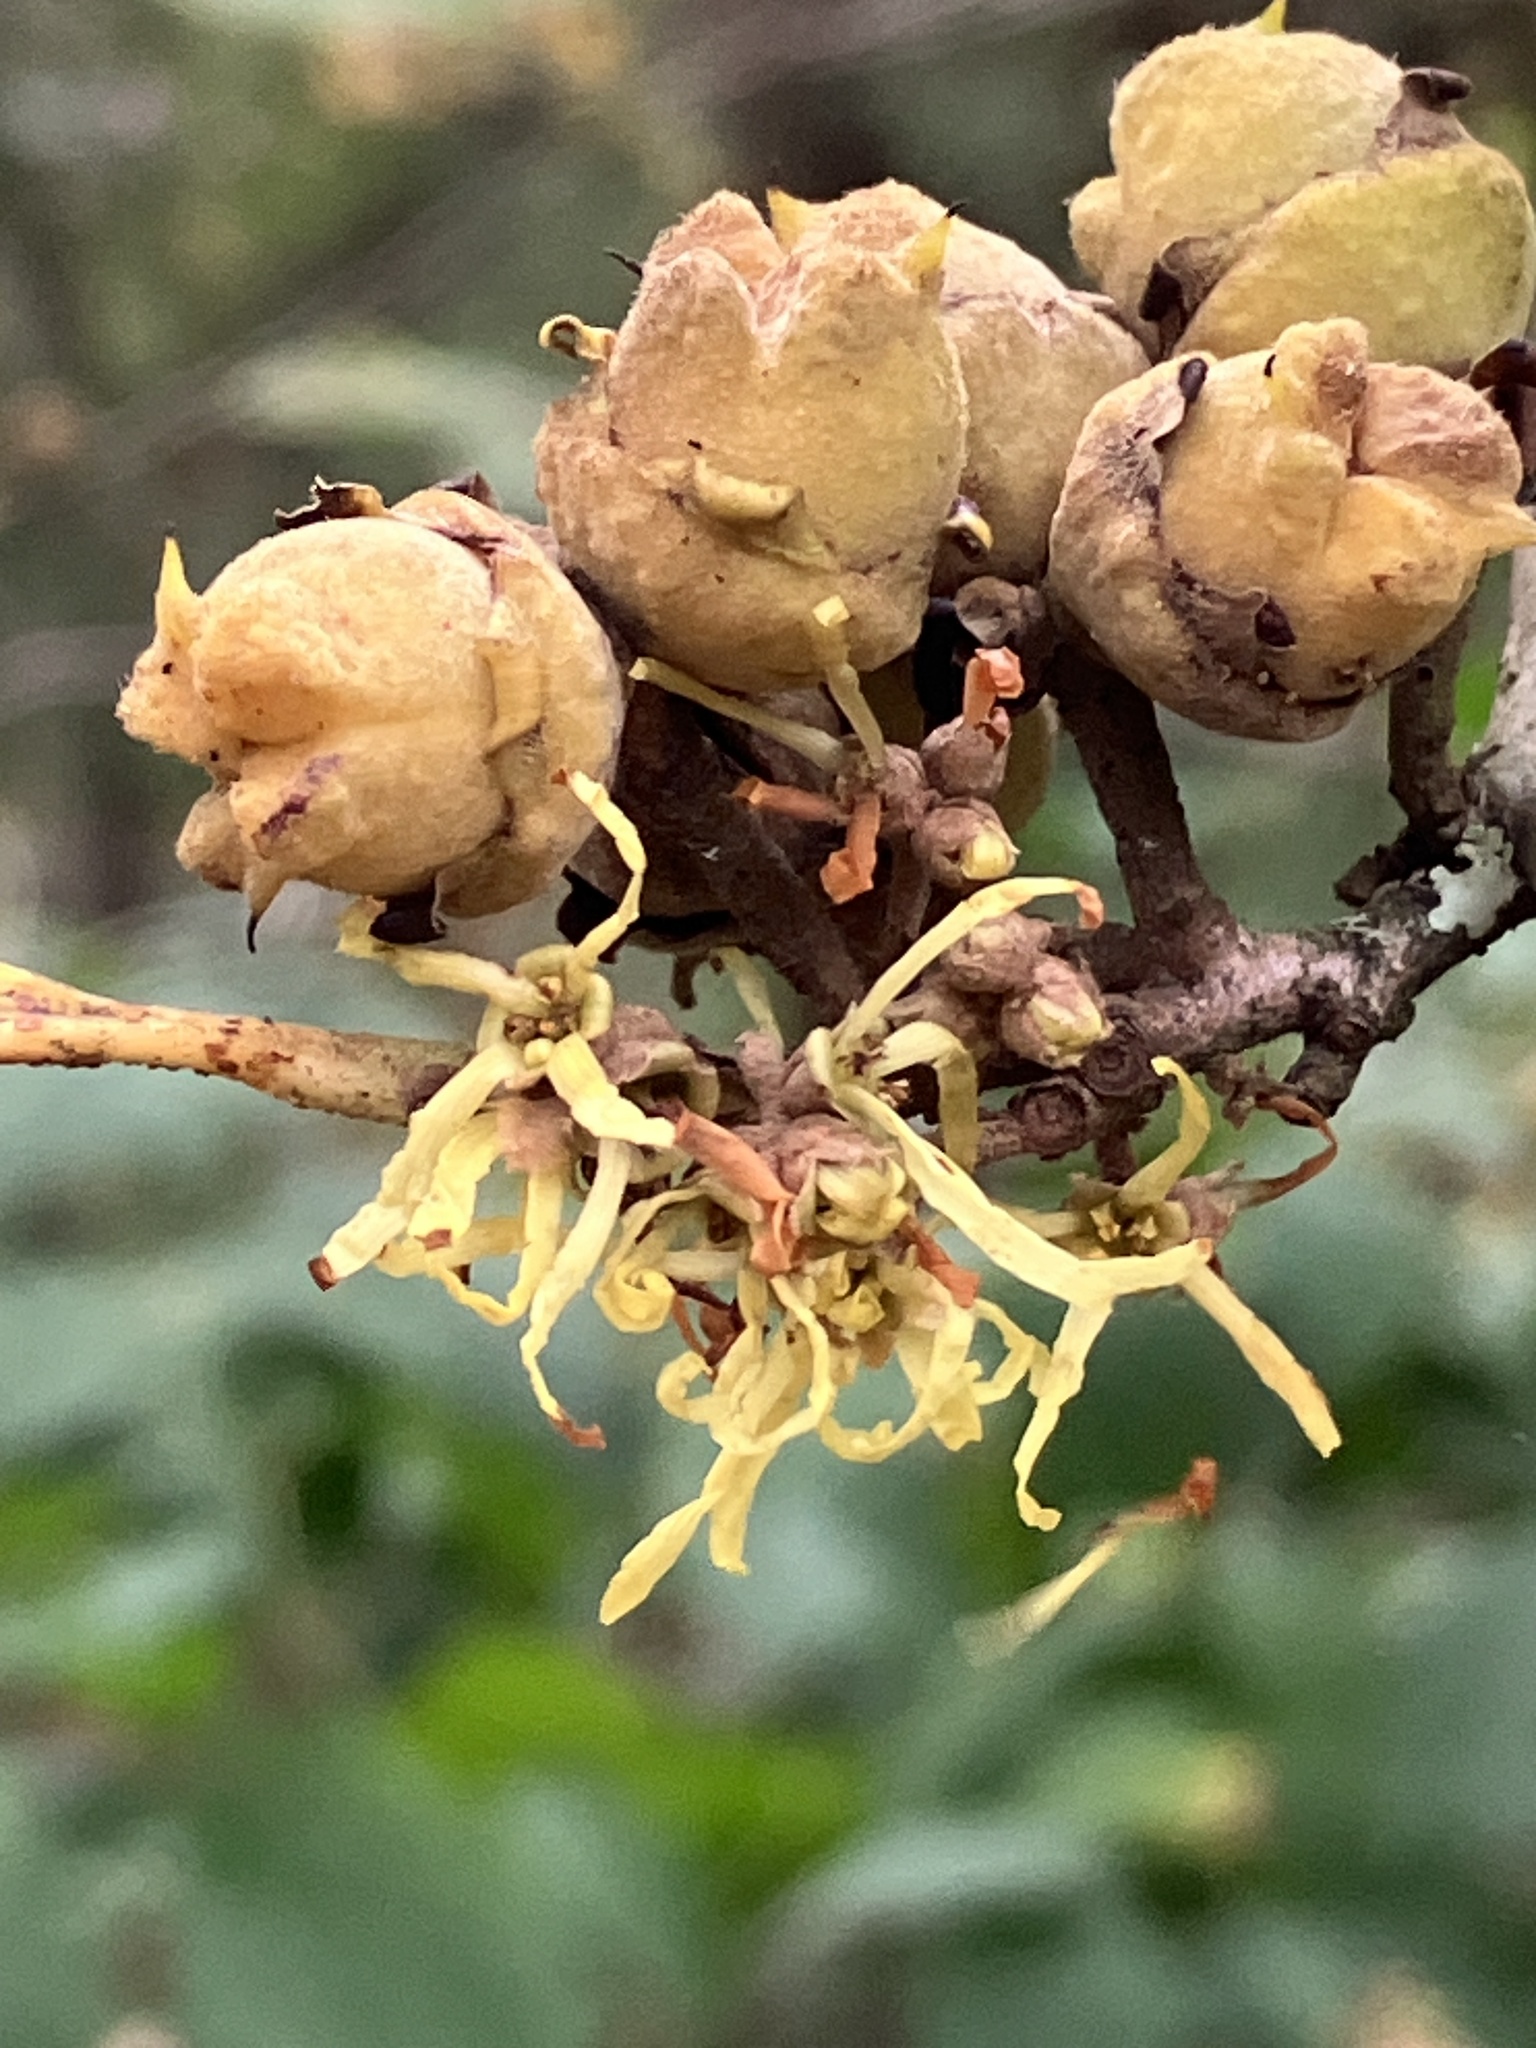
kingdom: Plantae
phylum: Tracheophyta
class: Magnoliopsida
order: Saxifragales
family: Hamamelidaceae
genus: Hamamelis
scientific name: Hamamelis virginiana
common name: Witch-hazel
